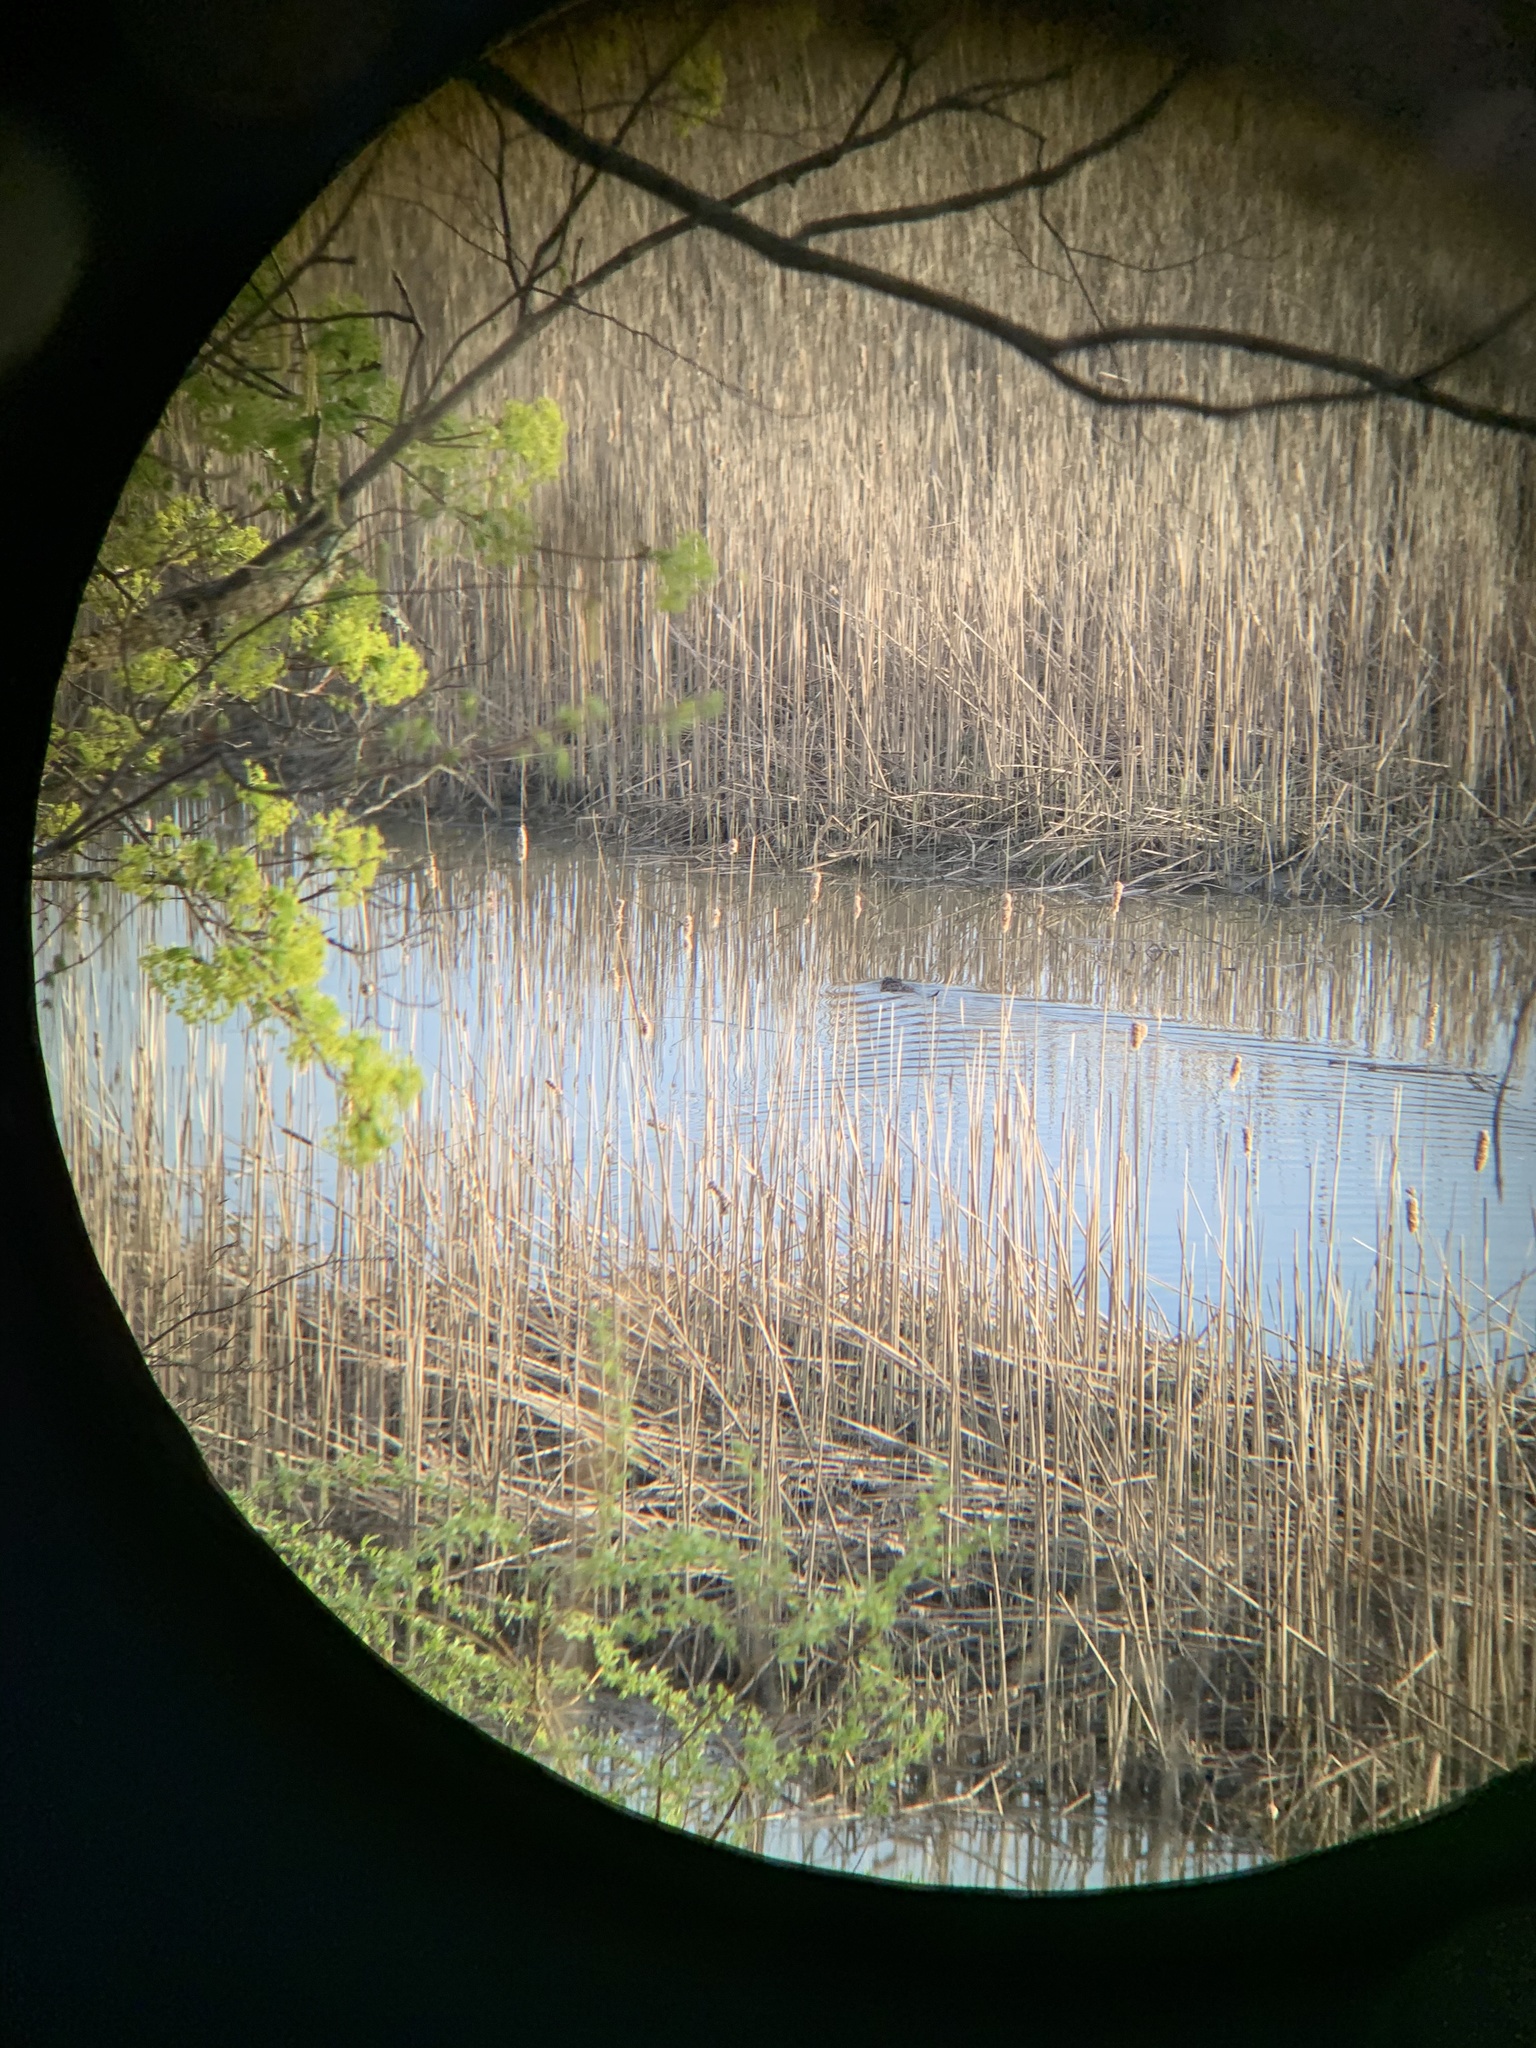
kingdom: Animalia
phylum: Chordata
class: Mammalia
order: Rodentia
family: Cricetidae
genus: Ondatra
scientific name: Ondatra zibethicus
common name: Muskrat
